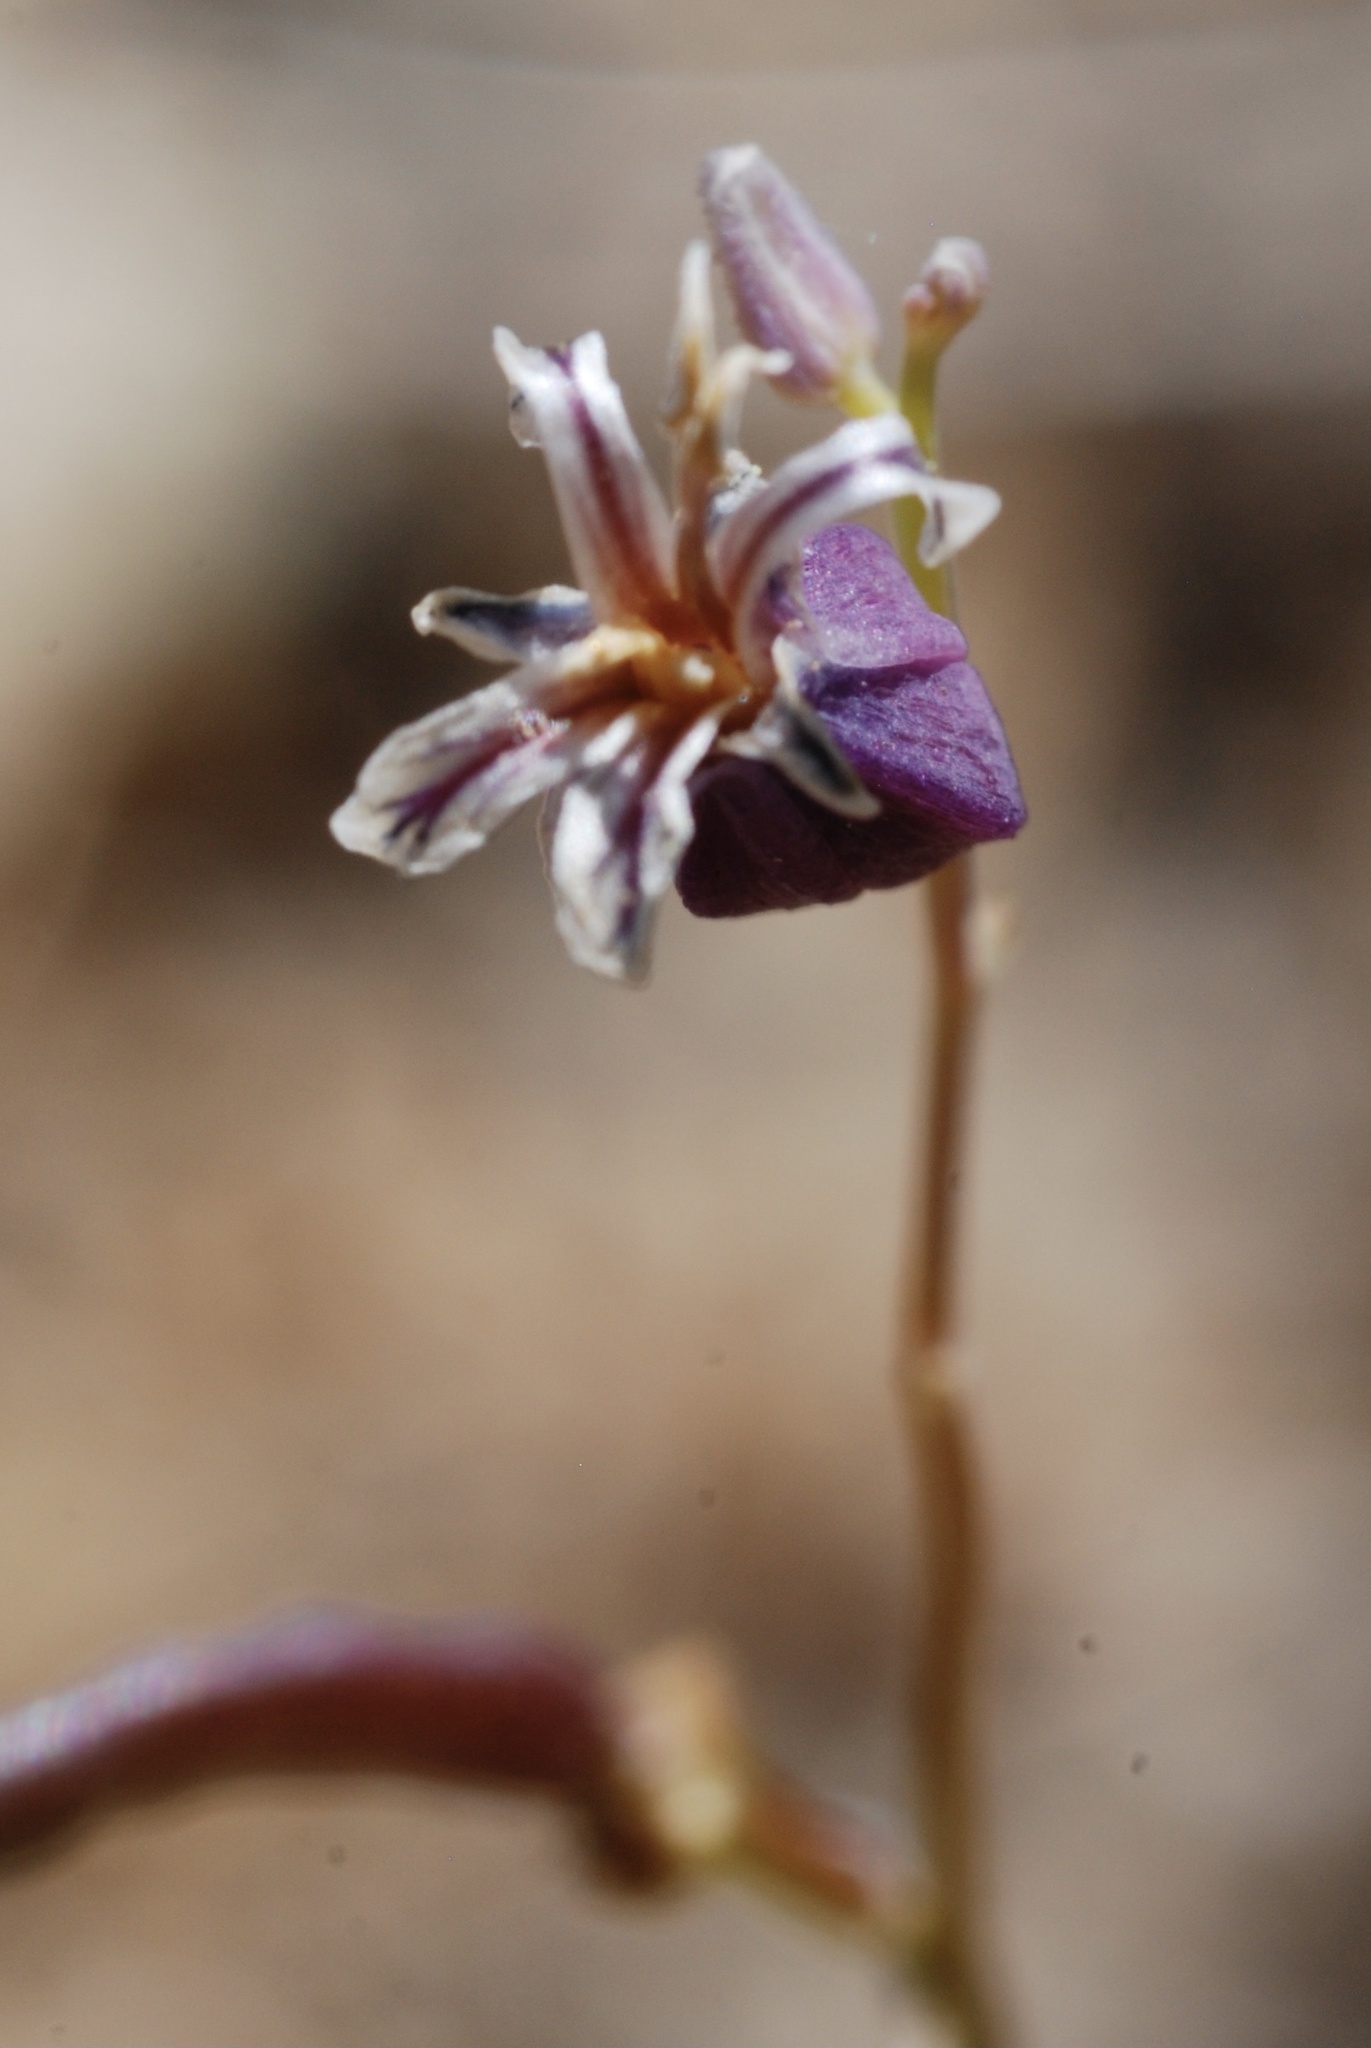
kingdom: Plantae
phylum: Tracheophyta
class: Magnoliopsida
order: Brassicales
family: Brassicaceae
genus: Streptanthus
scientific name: Streptanthus tortuosus
